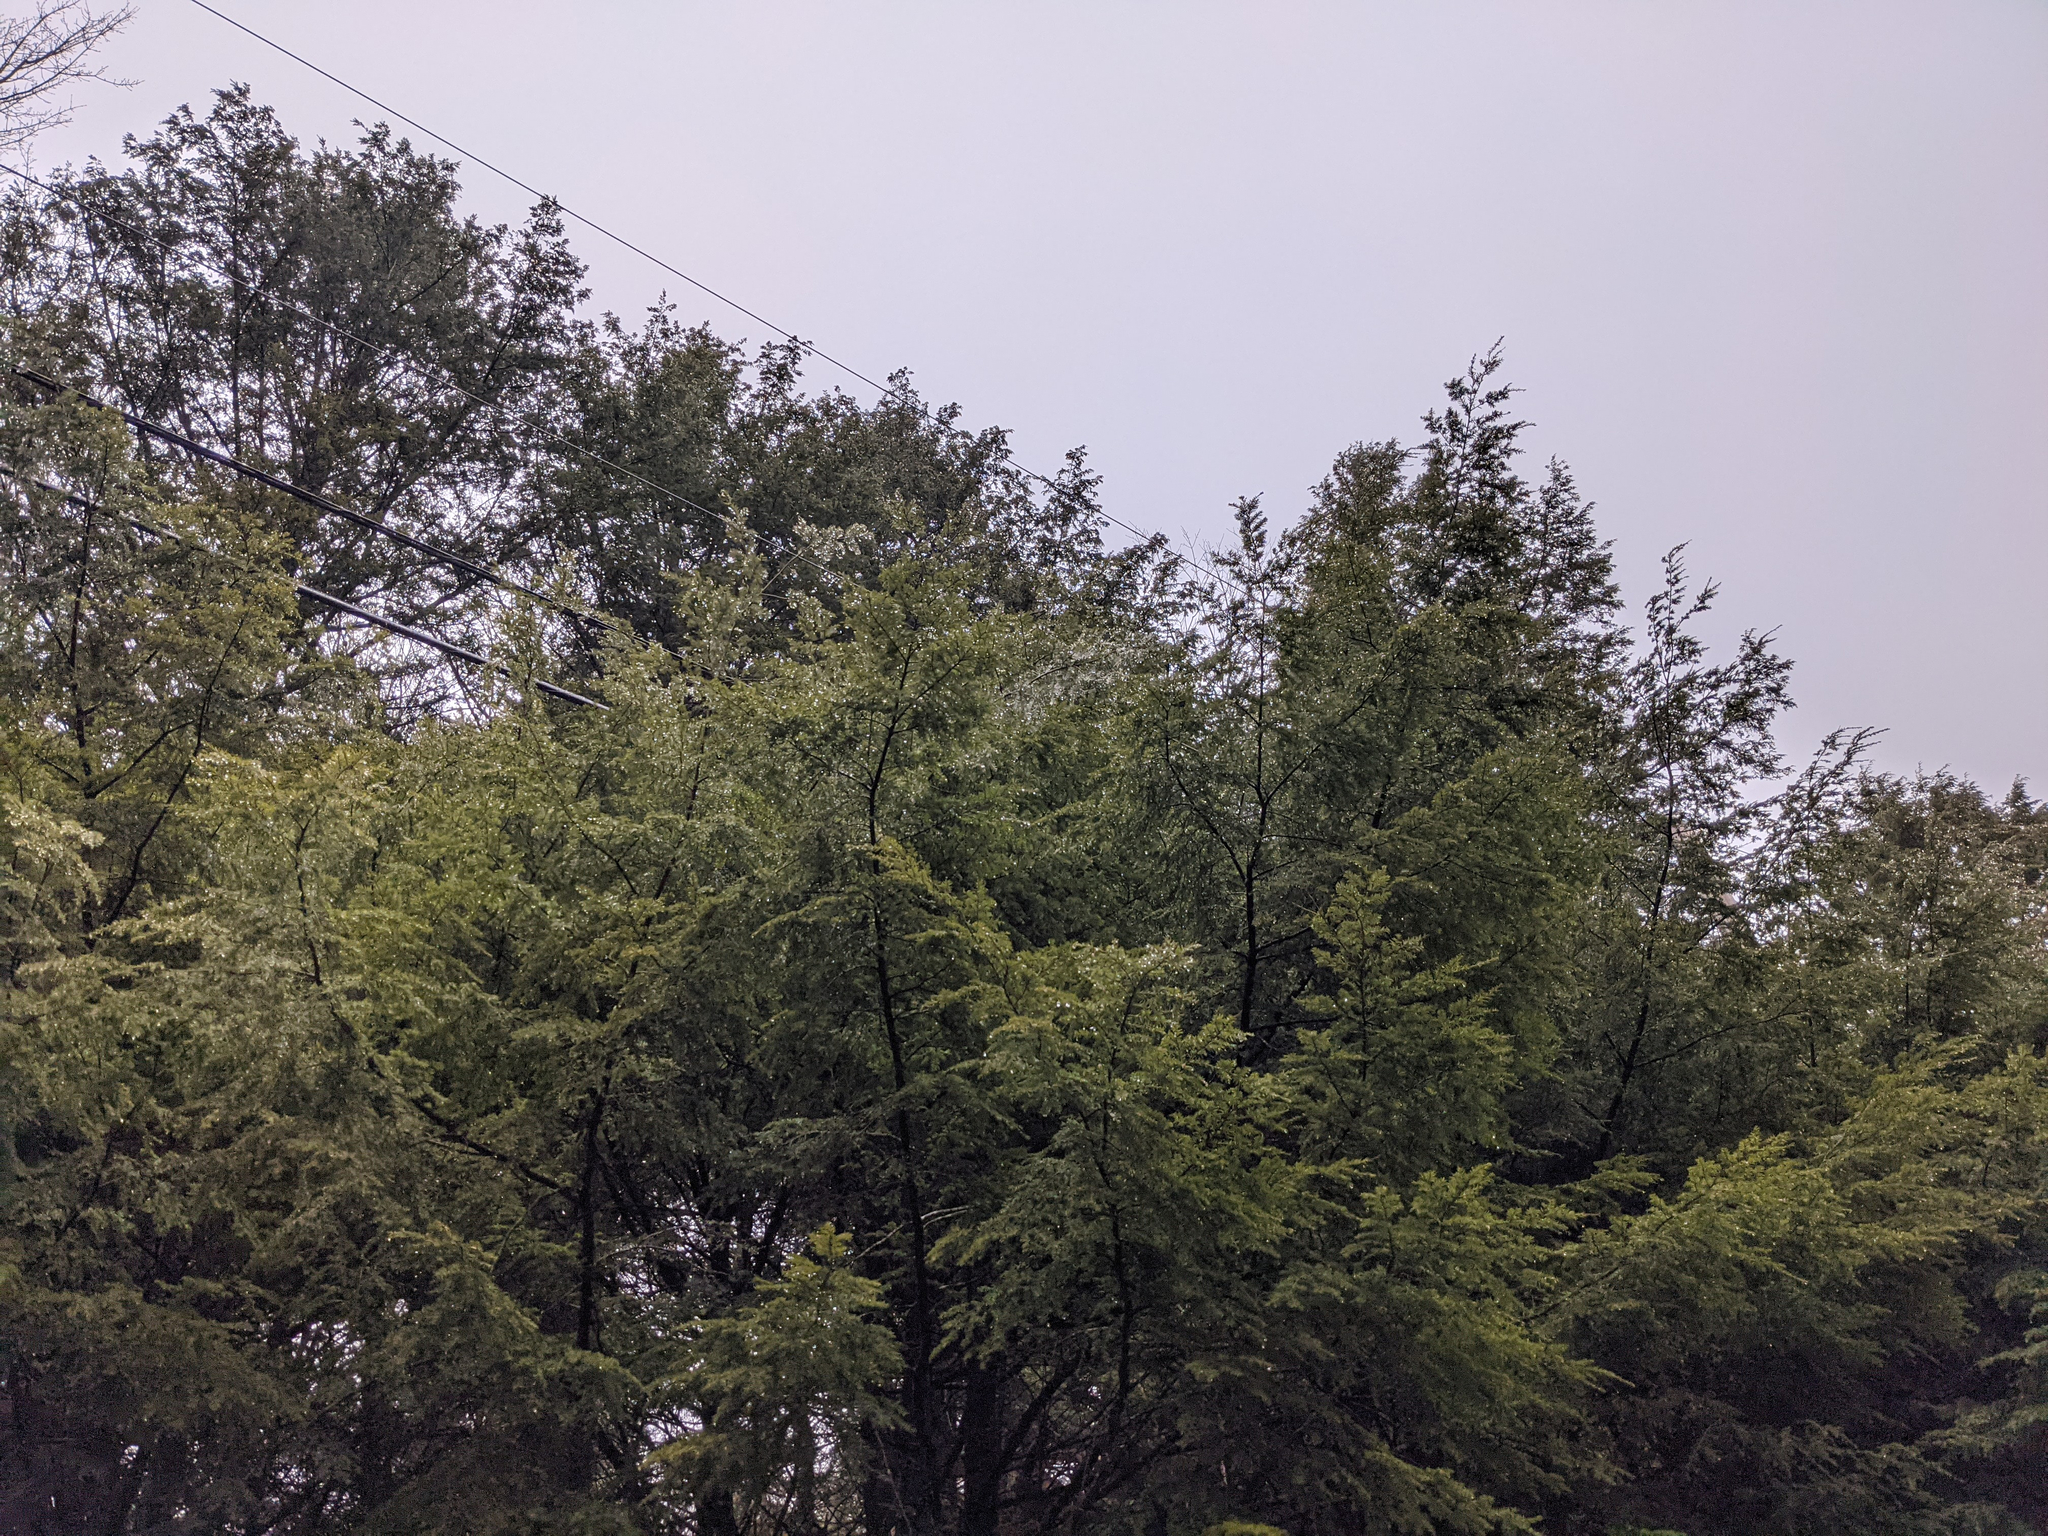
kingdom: Plantae
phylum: Tracheophyta
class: Pinopsida
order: Pinales
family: Pinaceae
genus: Tsuga
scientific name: Tsuga canadensis
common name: Eastern hemlock
